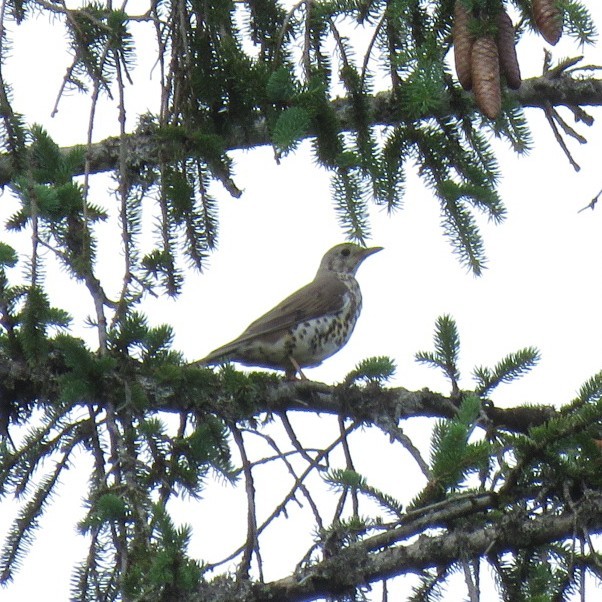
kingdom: Animalia
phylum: Chordata
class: Aves
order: Passeriformes
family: Turdidae
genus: Turdus
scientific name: Turdus viscivorus
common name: Mistle thrush
